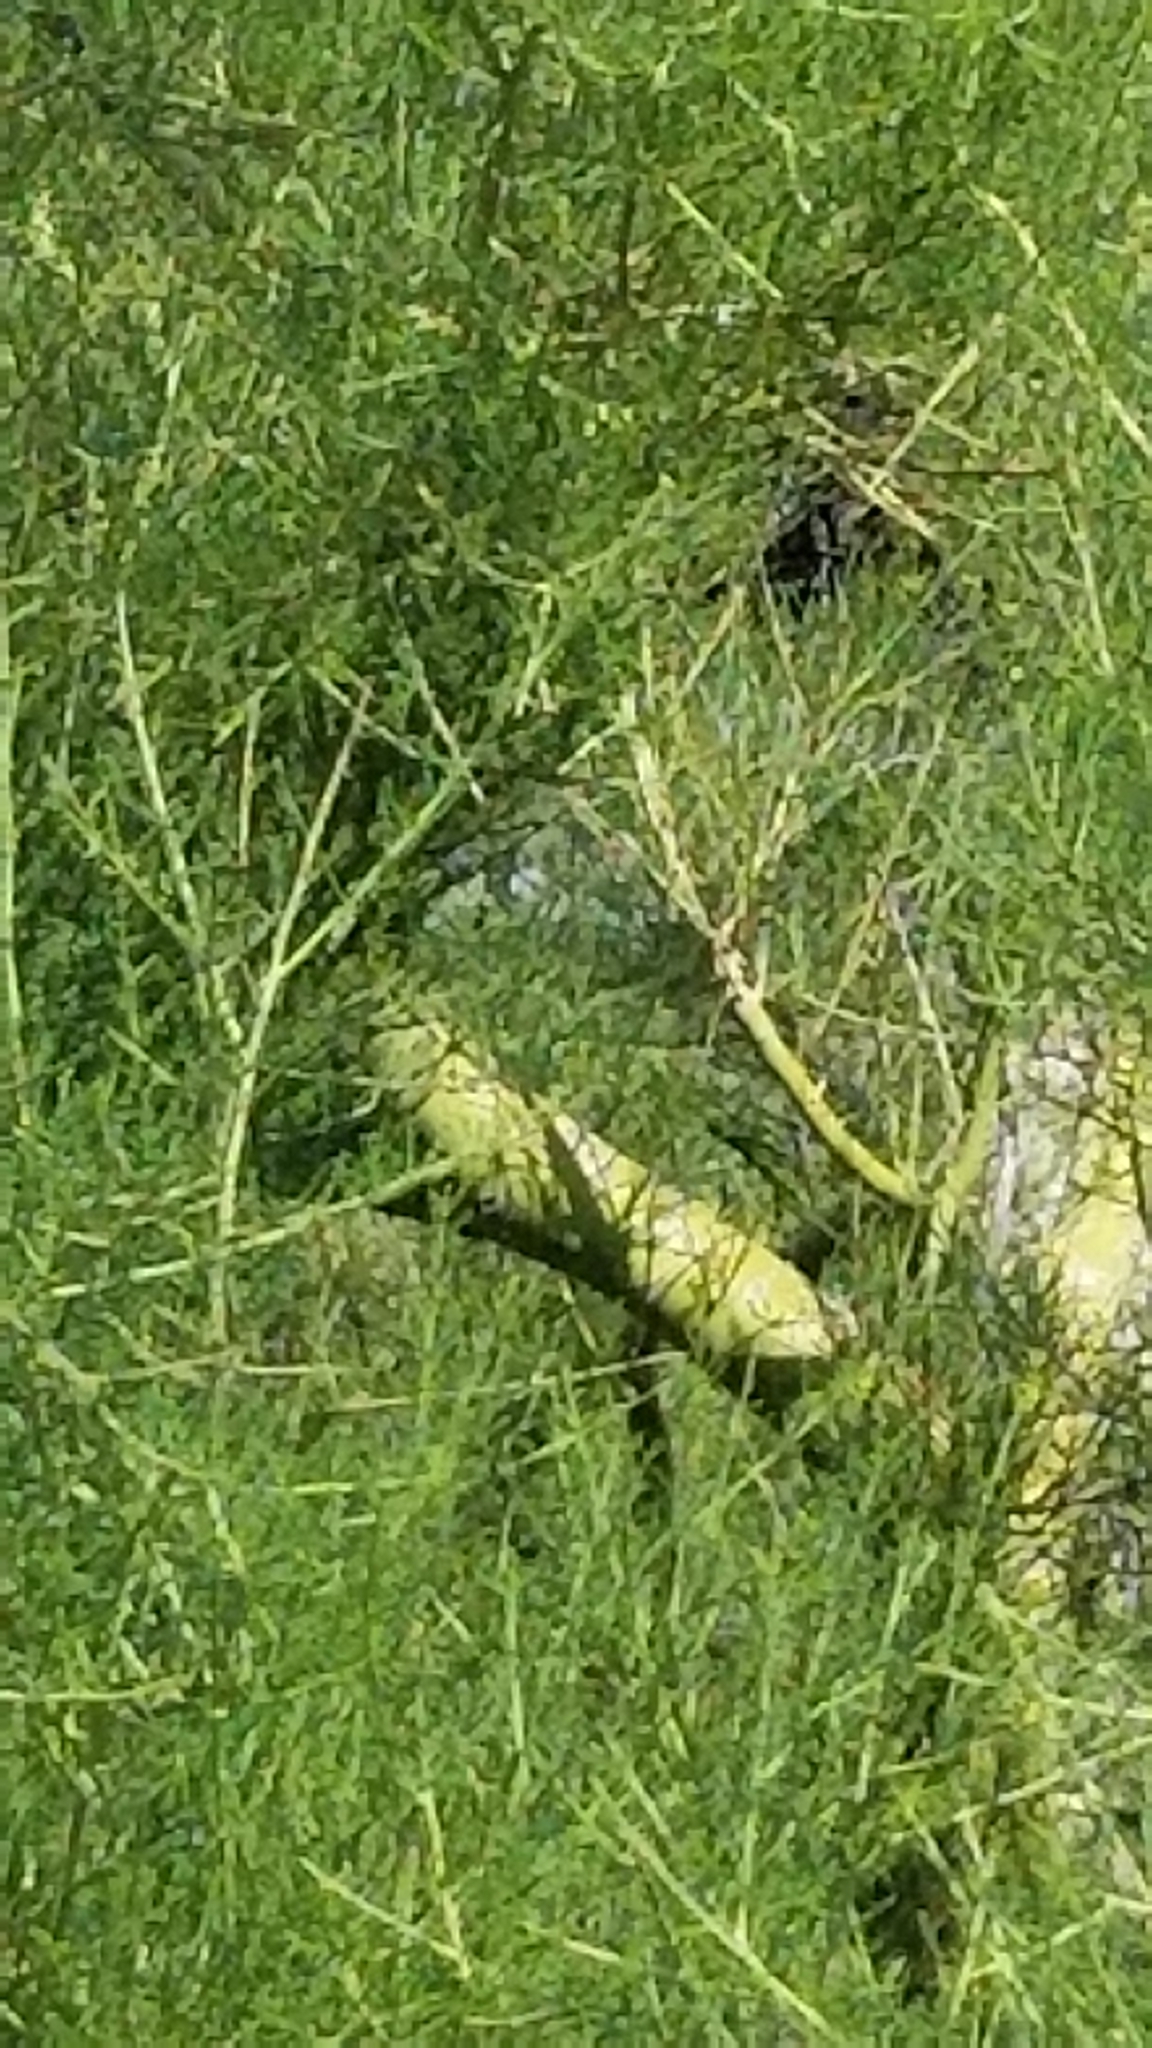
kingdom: Plantae
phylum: Tracheophyta
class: Magnoliopsida
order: Fabales
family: Fabaceae
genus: Parkinsonia
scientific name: Parkinsonia microphylla
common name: Yellow paloverde
